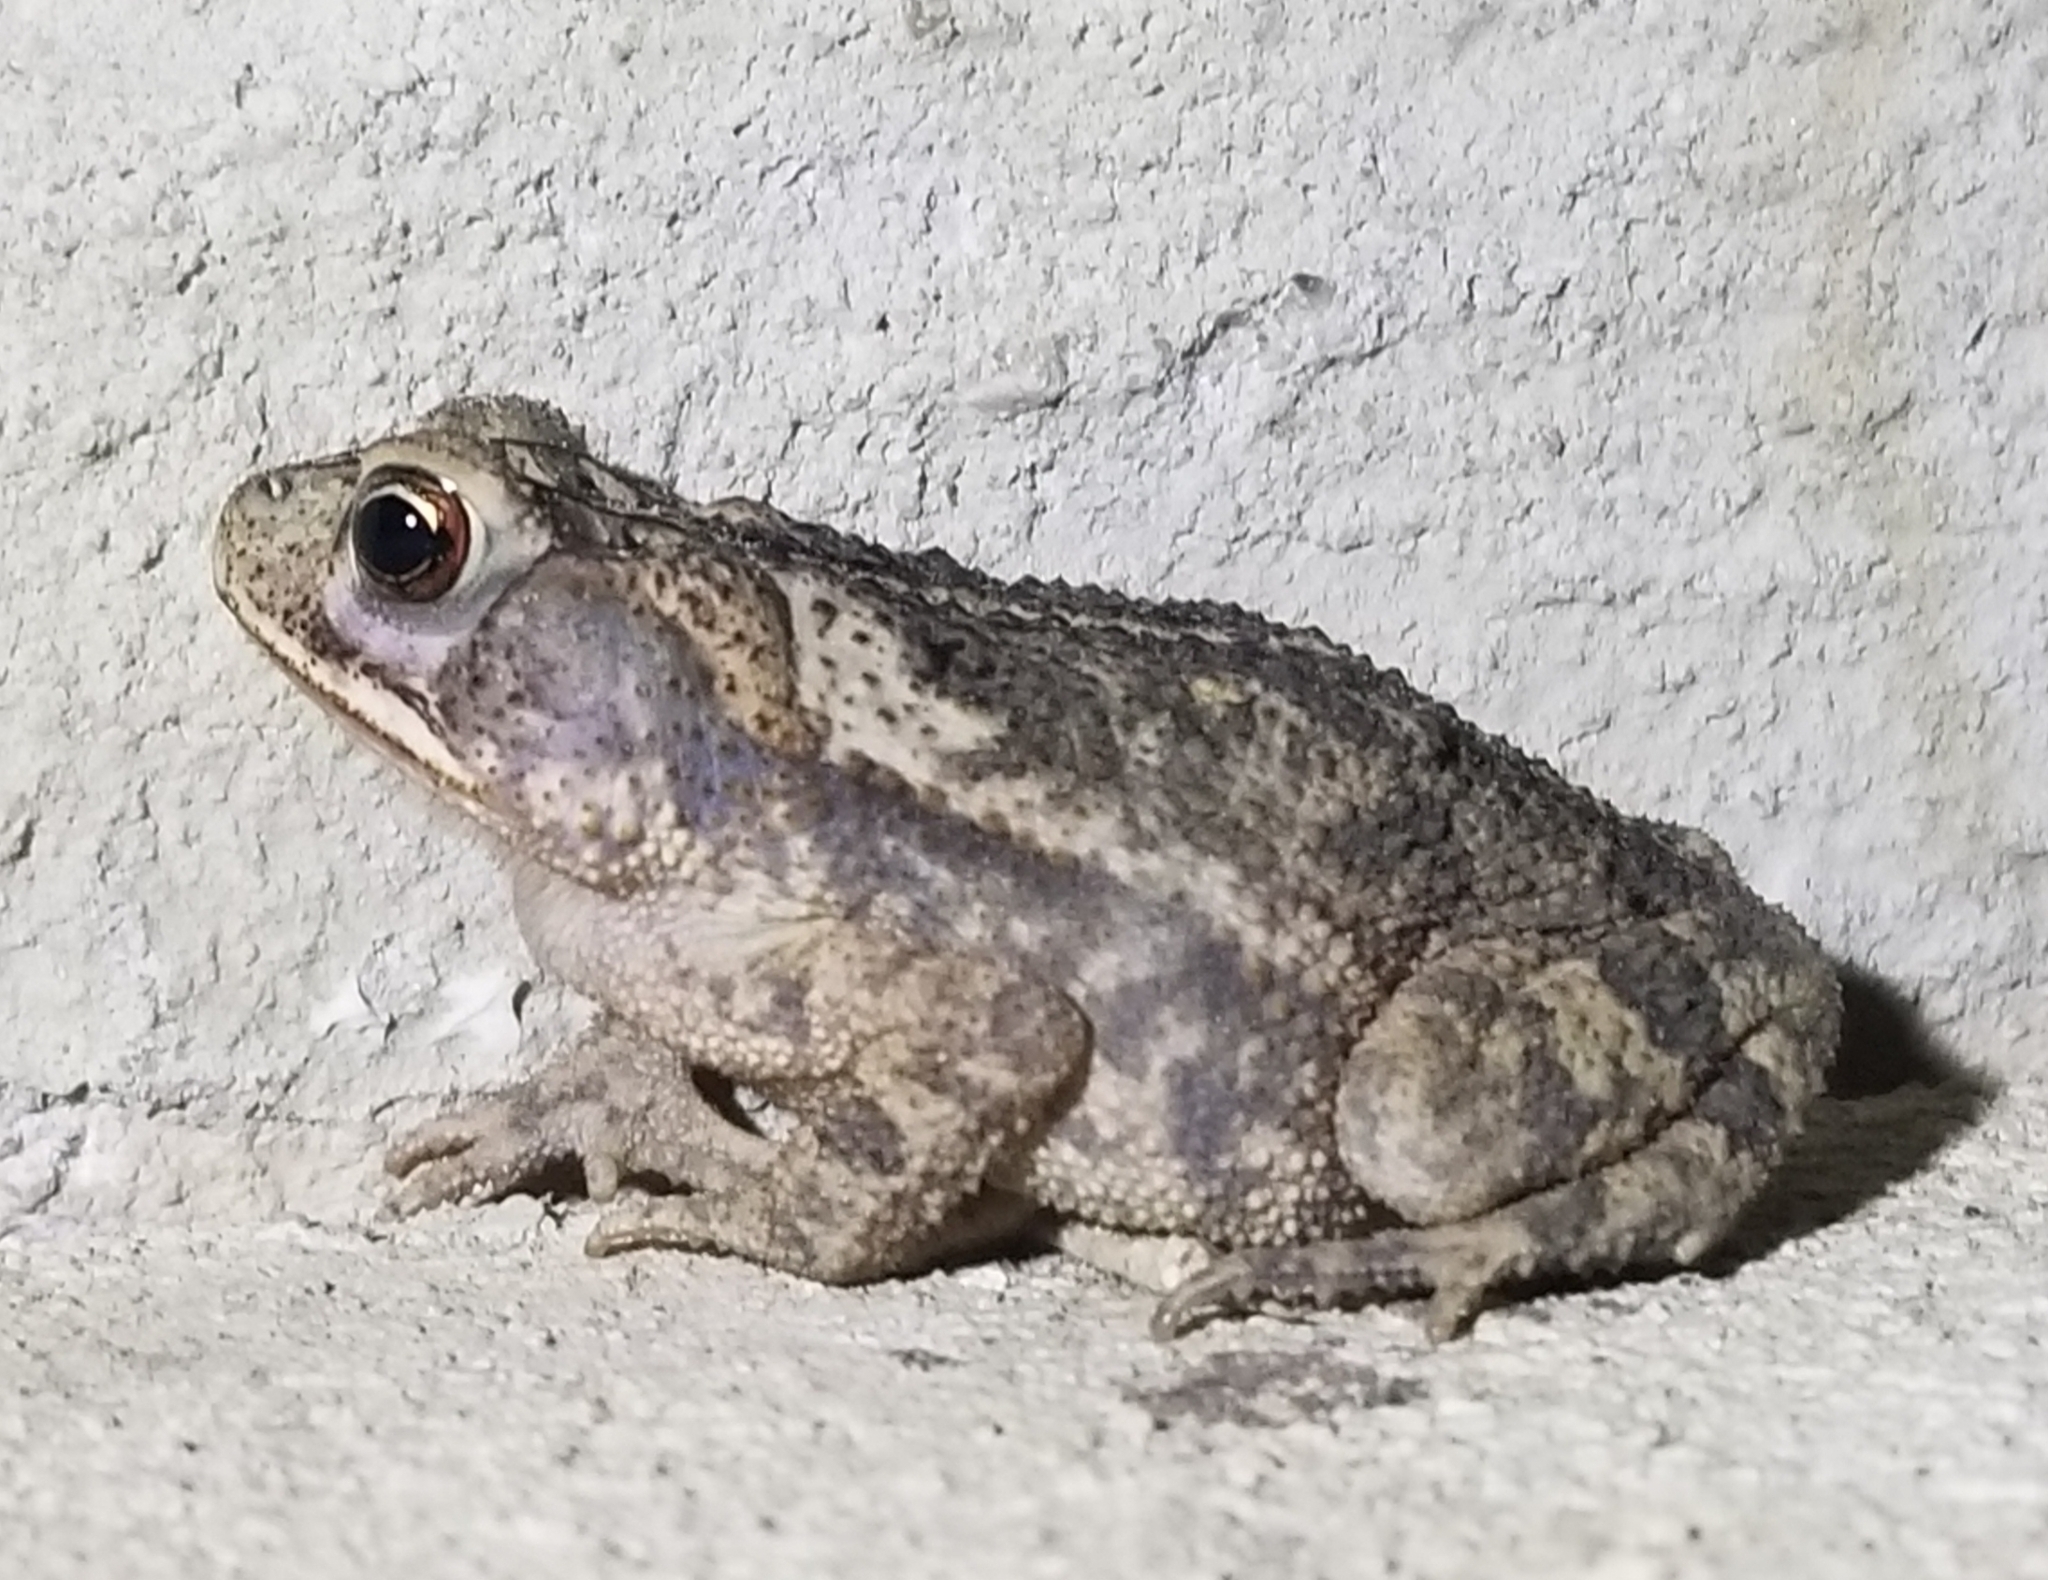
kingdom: Animalia
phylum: Chordata
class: Amphibia
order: Anura
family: Bufonidae
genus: Incilius
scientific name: Incilius nebulifer
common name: Gulf coast toad
